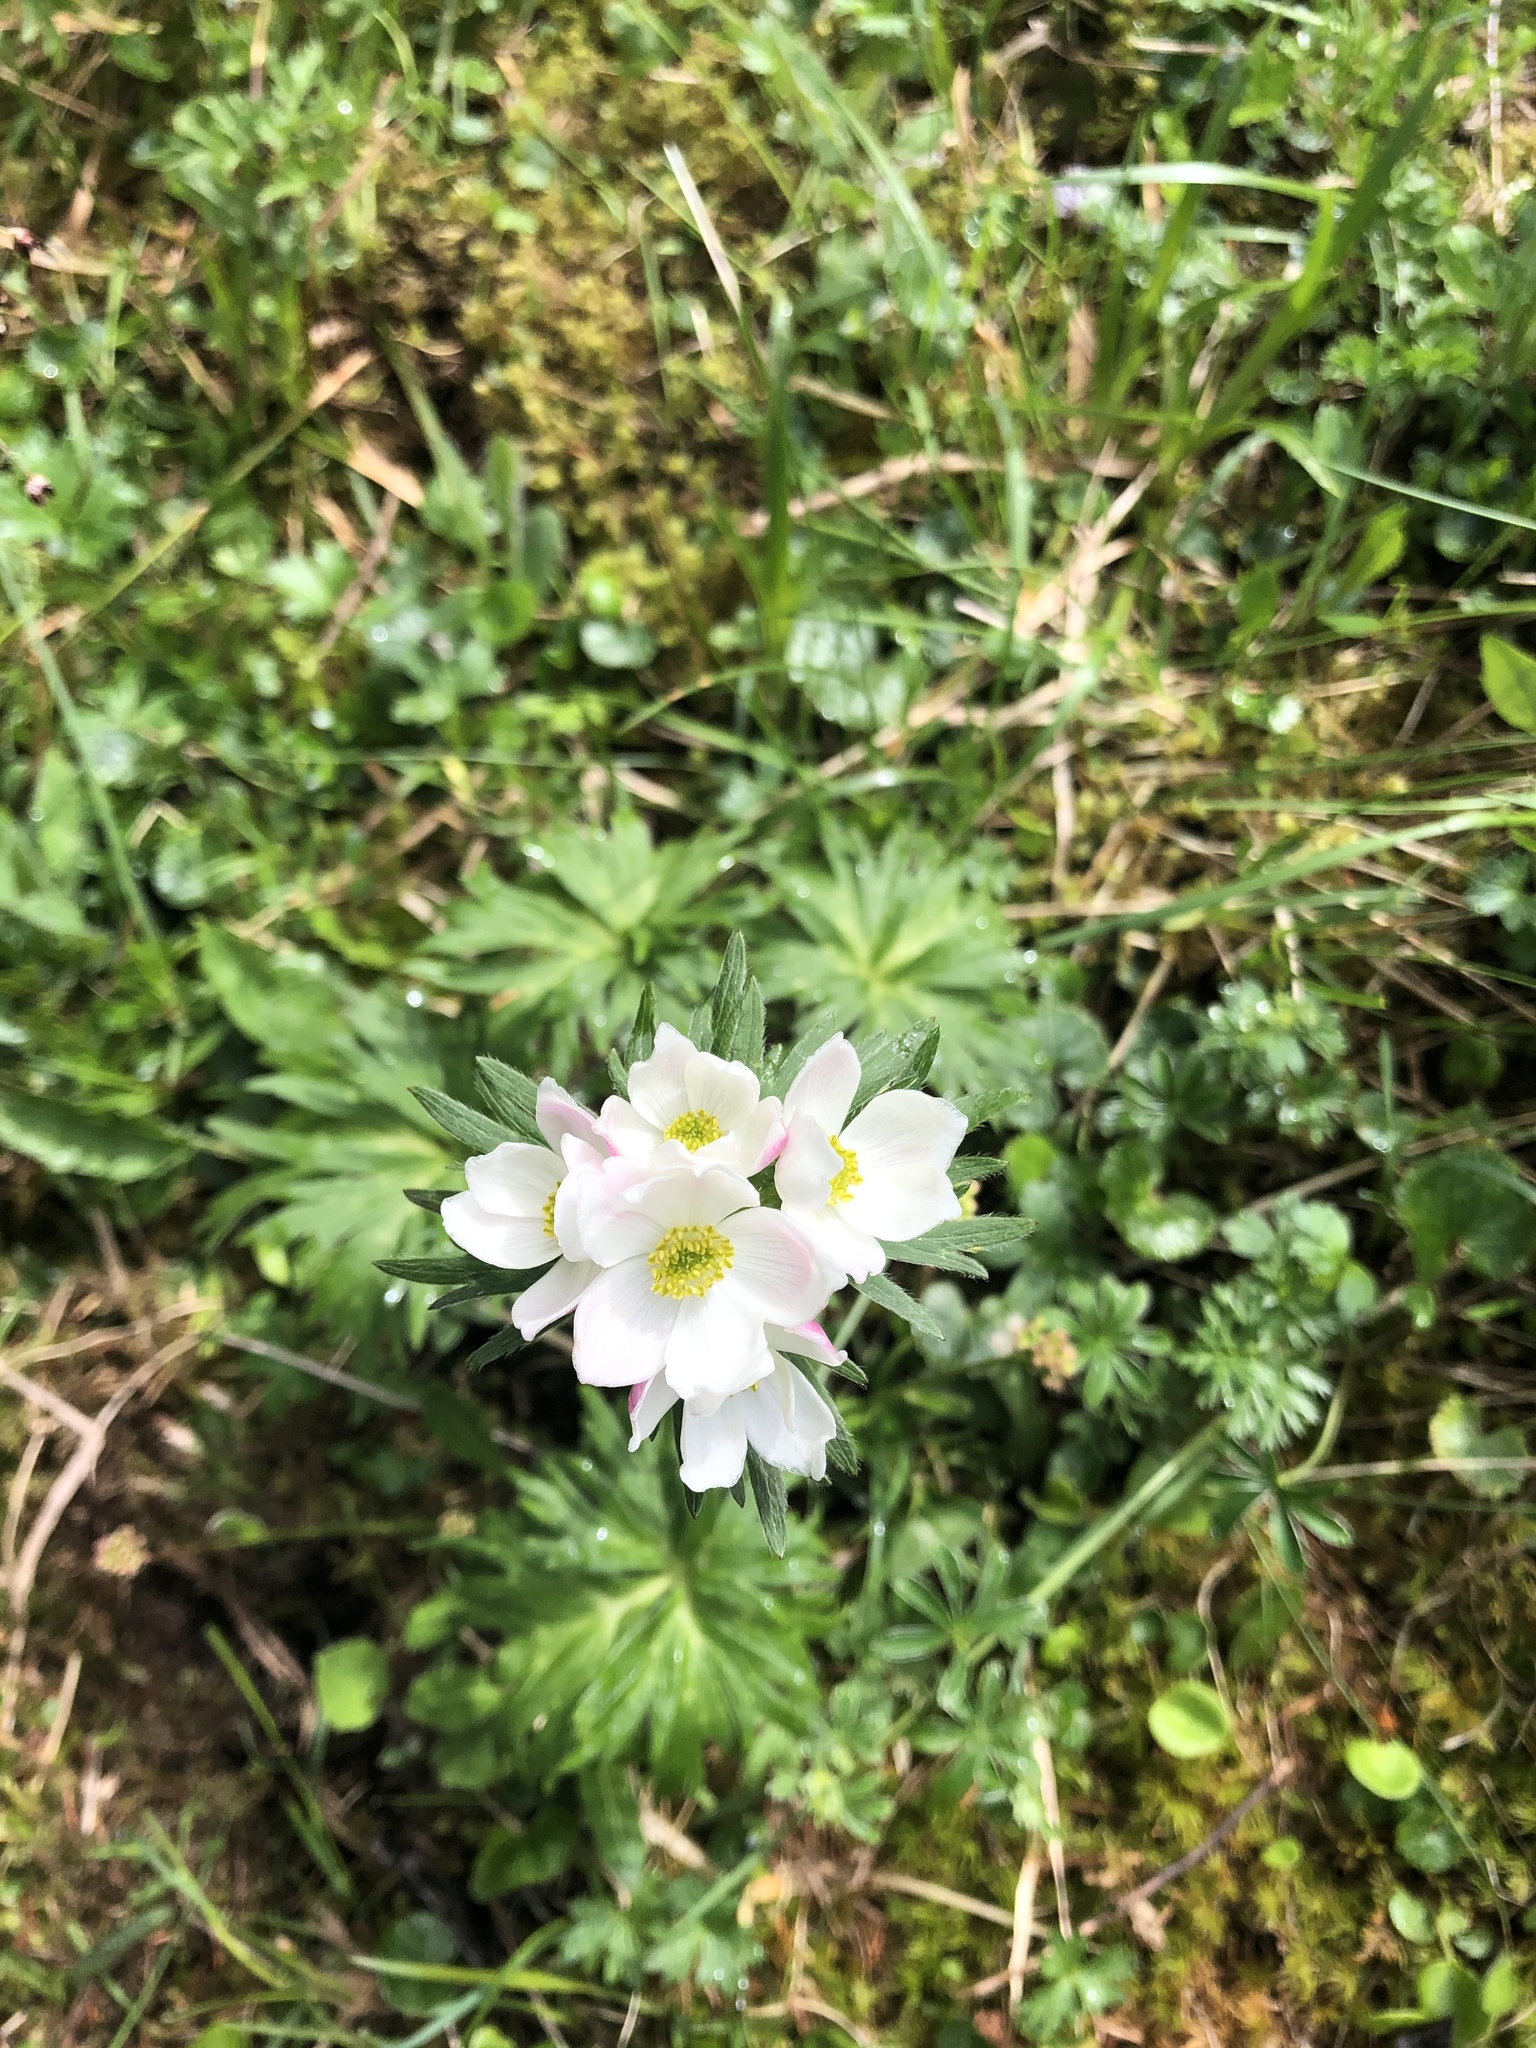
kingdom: Plantae
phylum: Tracheophyta
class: Magnoliopsida
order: Ranunculales
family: Ranunculaceae
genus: Anemonastrum
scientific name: Anemonastrum narcissiflorum
